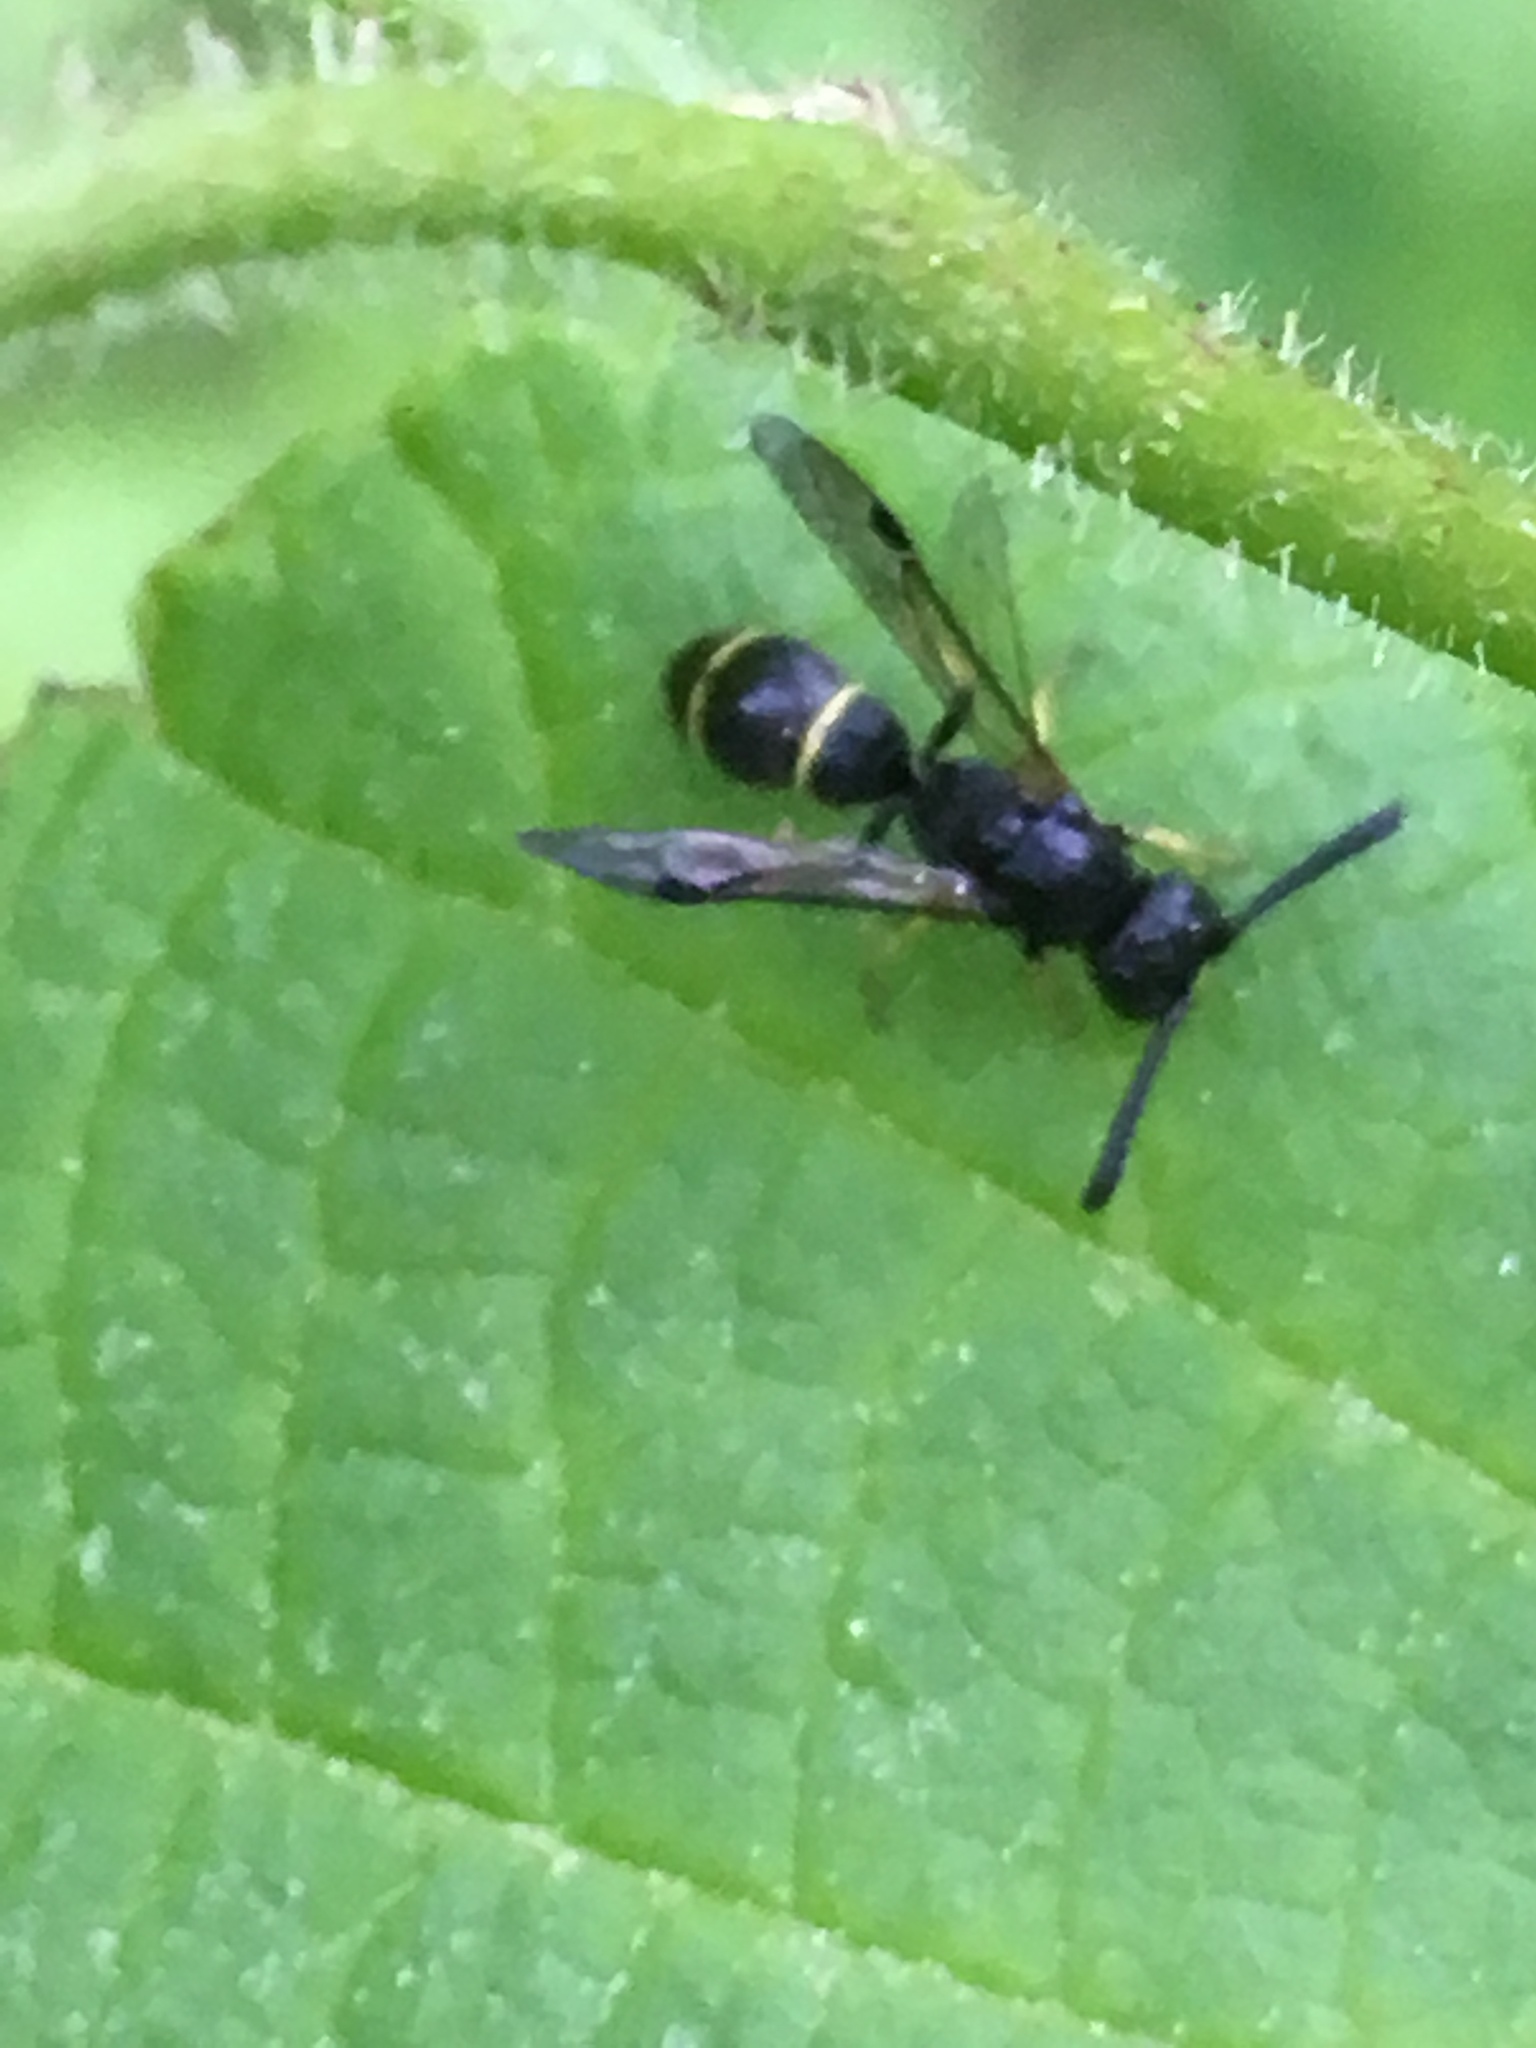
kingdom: Animalia
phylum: Arthropoda
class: Insecta
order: Hymenoptera
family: Eumenidae
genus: Symmorphus
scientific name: Symmorphus
